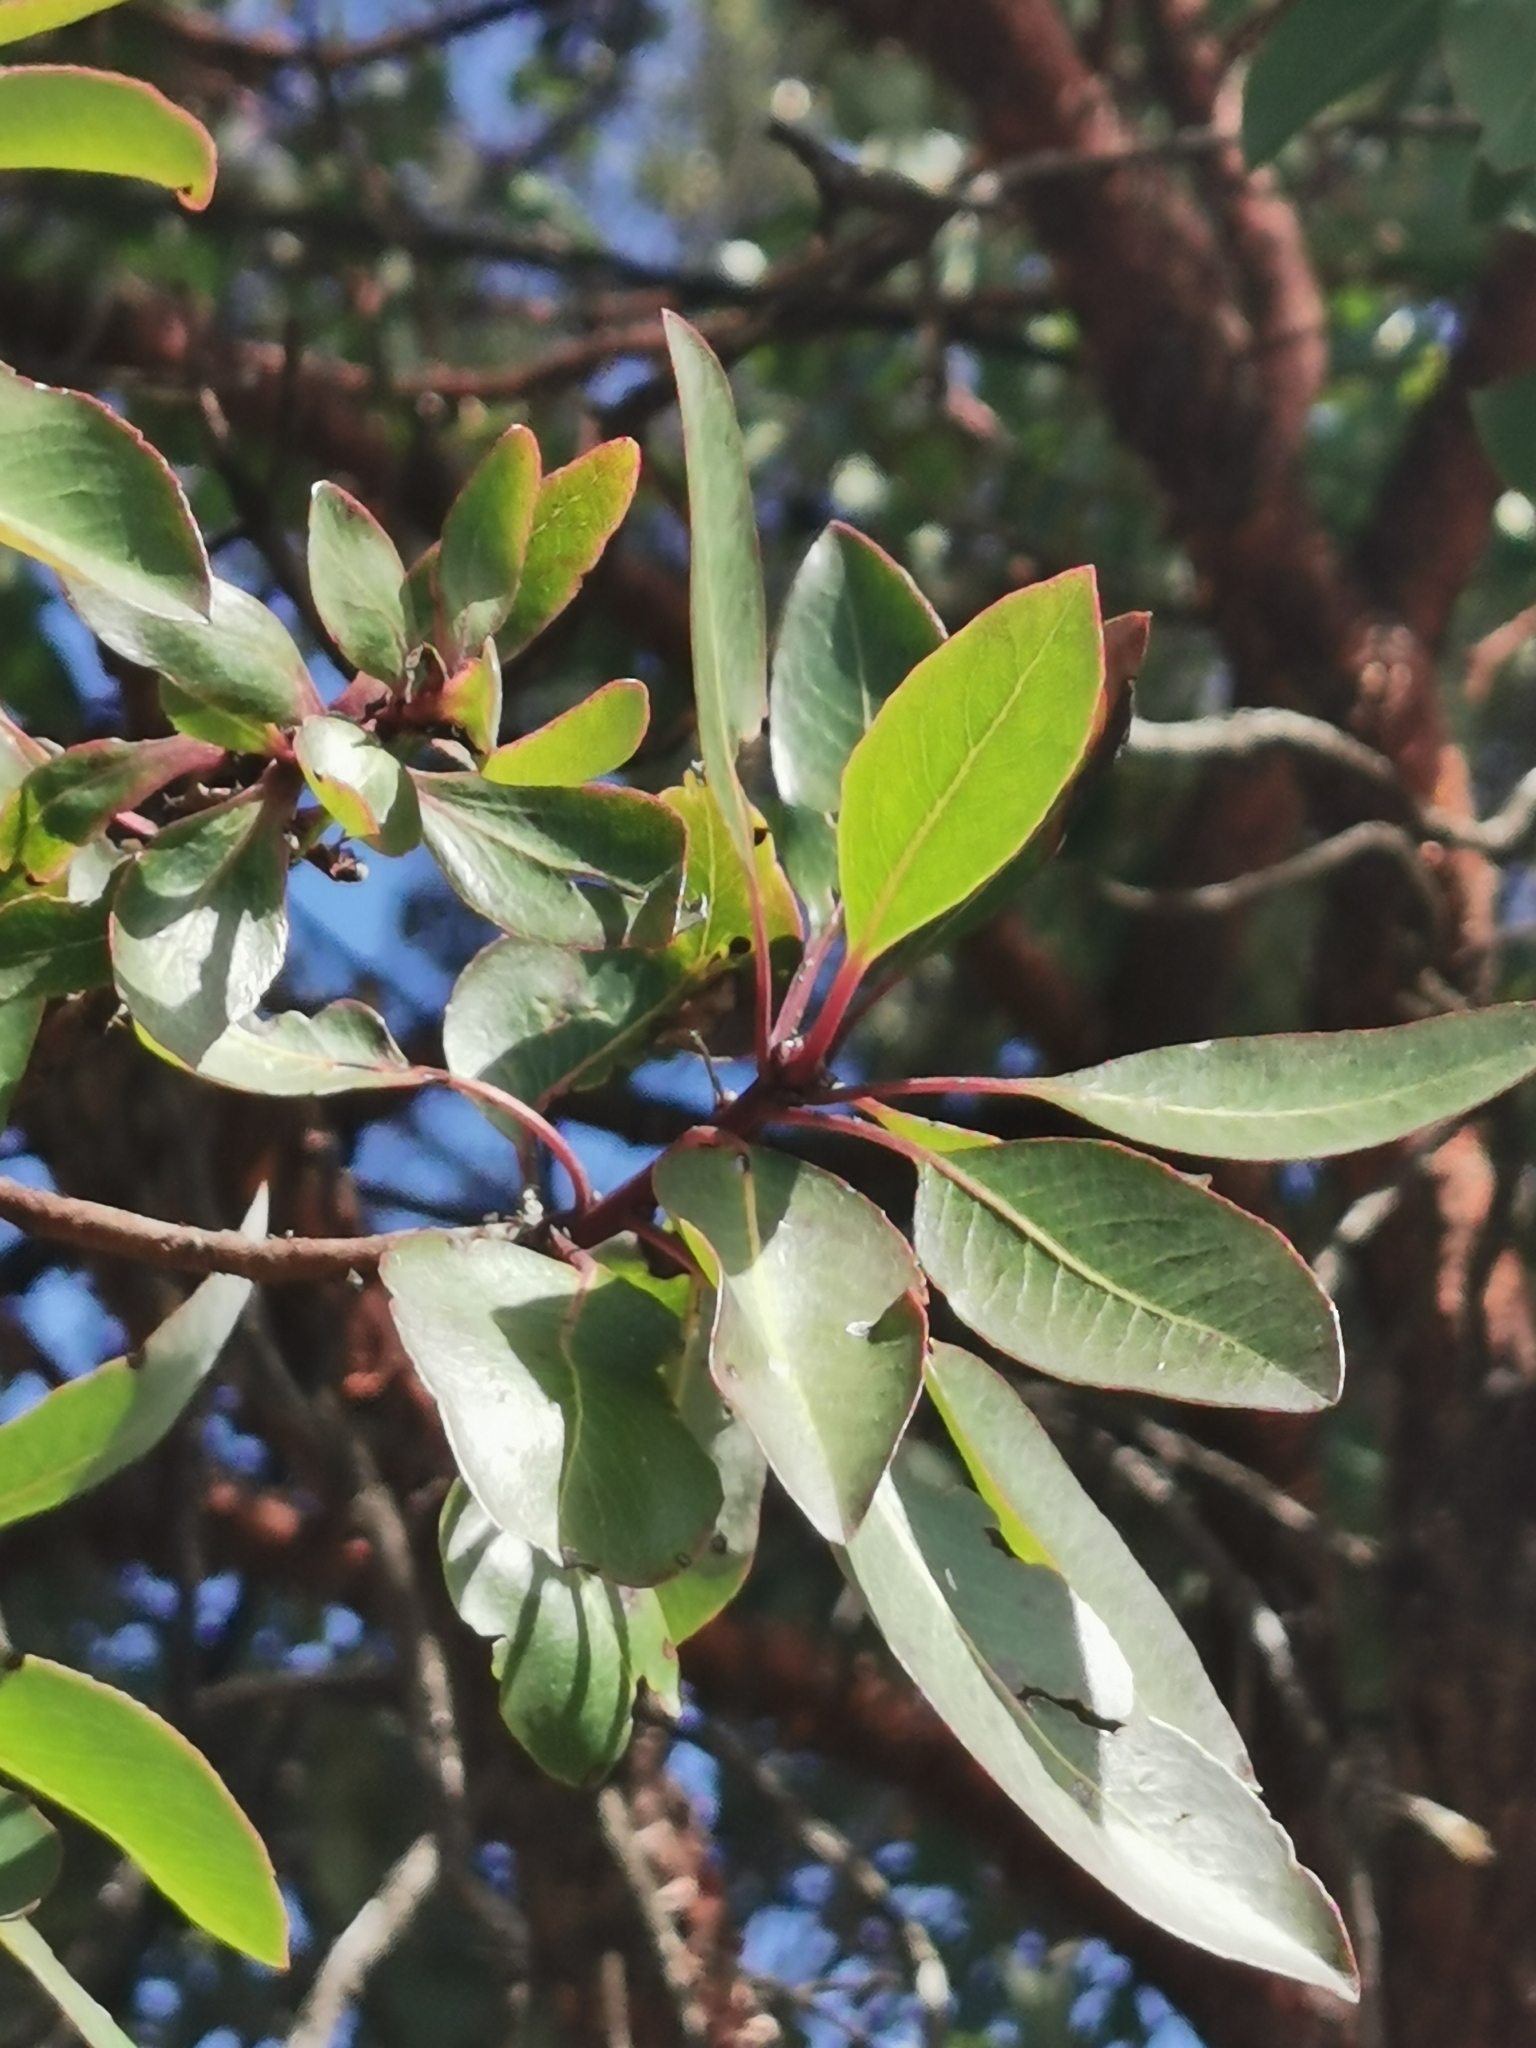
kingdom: Plantae
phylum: Tracheophyta
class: Magnoliopsida
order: Ericales
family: Ericaceae
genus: Arbutus
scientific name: Arbutus arizonica
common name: Arizona madrone
